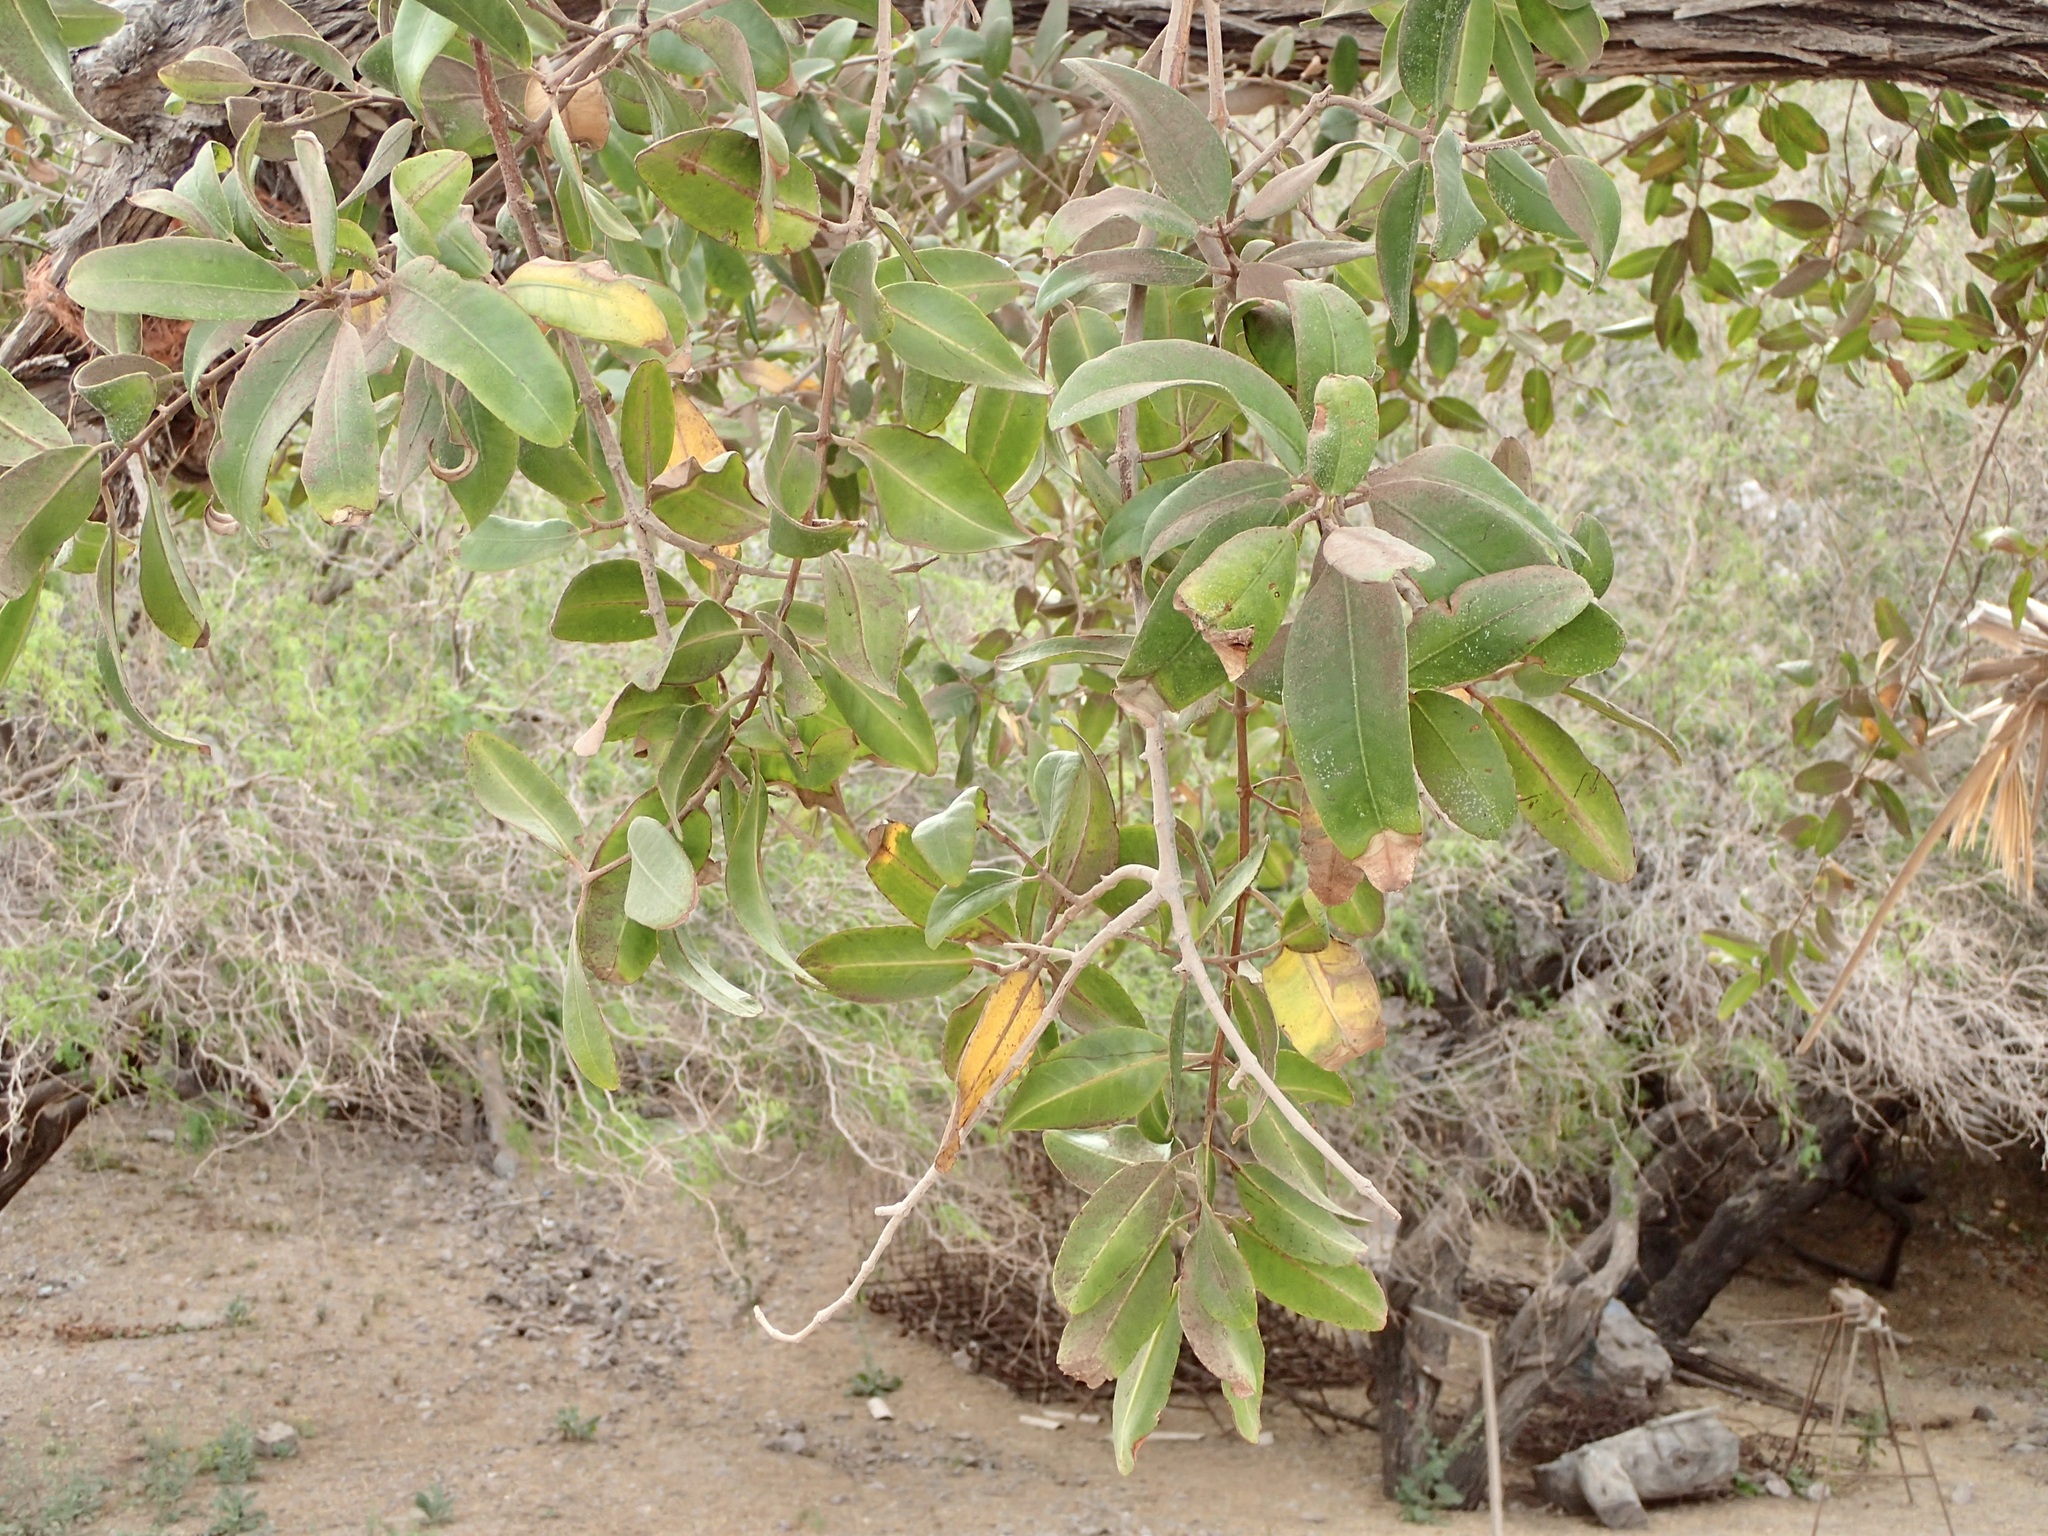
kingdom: Plantae
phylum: Tracheophyta
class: Magnoliopsida
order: Myrtales
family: Combretaceae
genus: Laguncularia
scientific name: Laguncularia racemosa
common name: White mangrove
